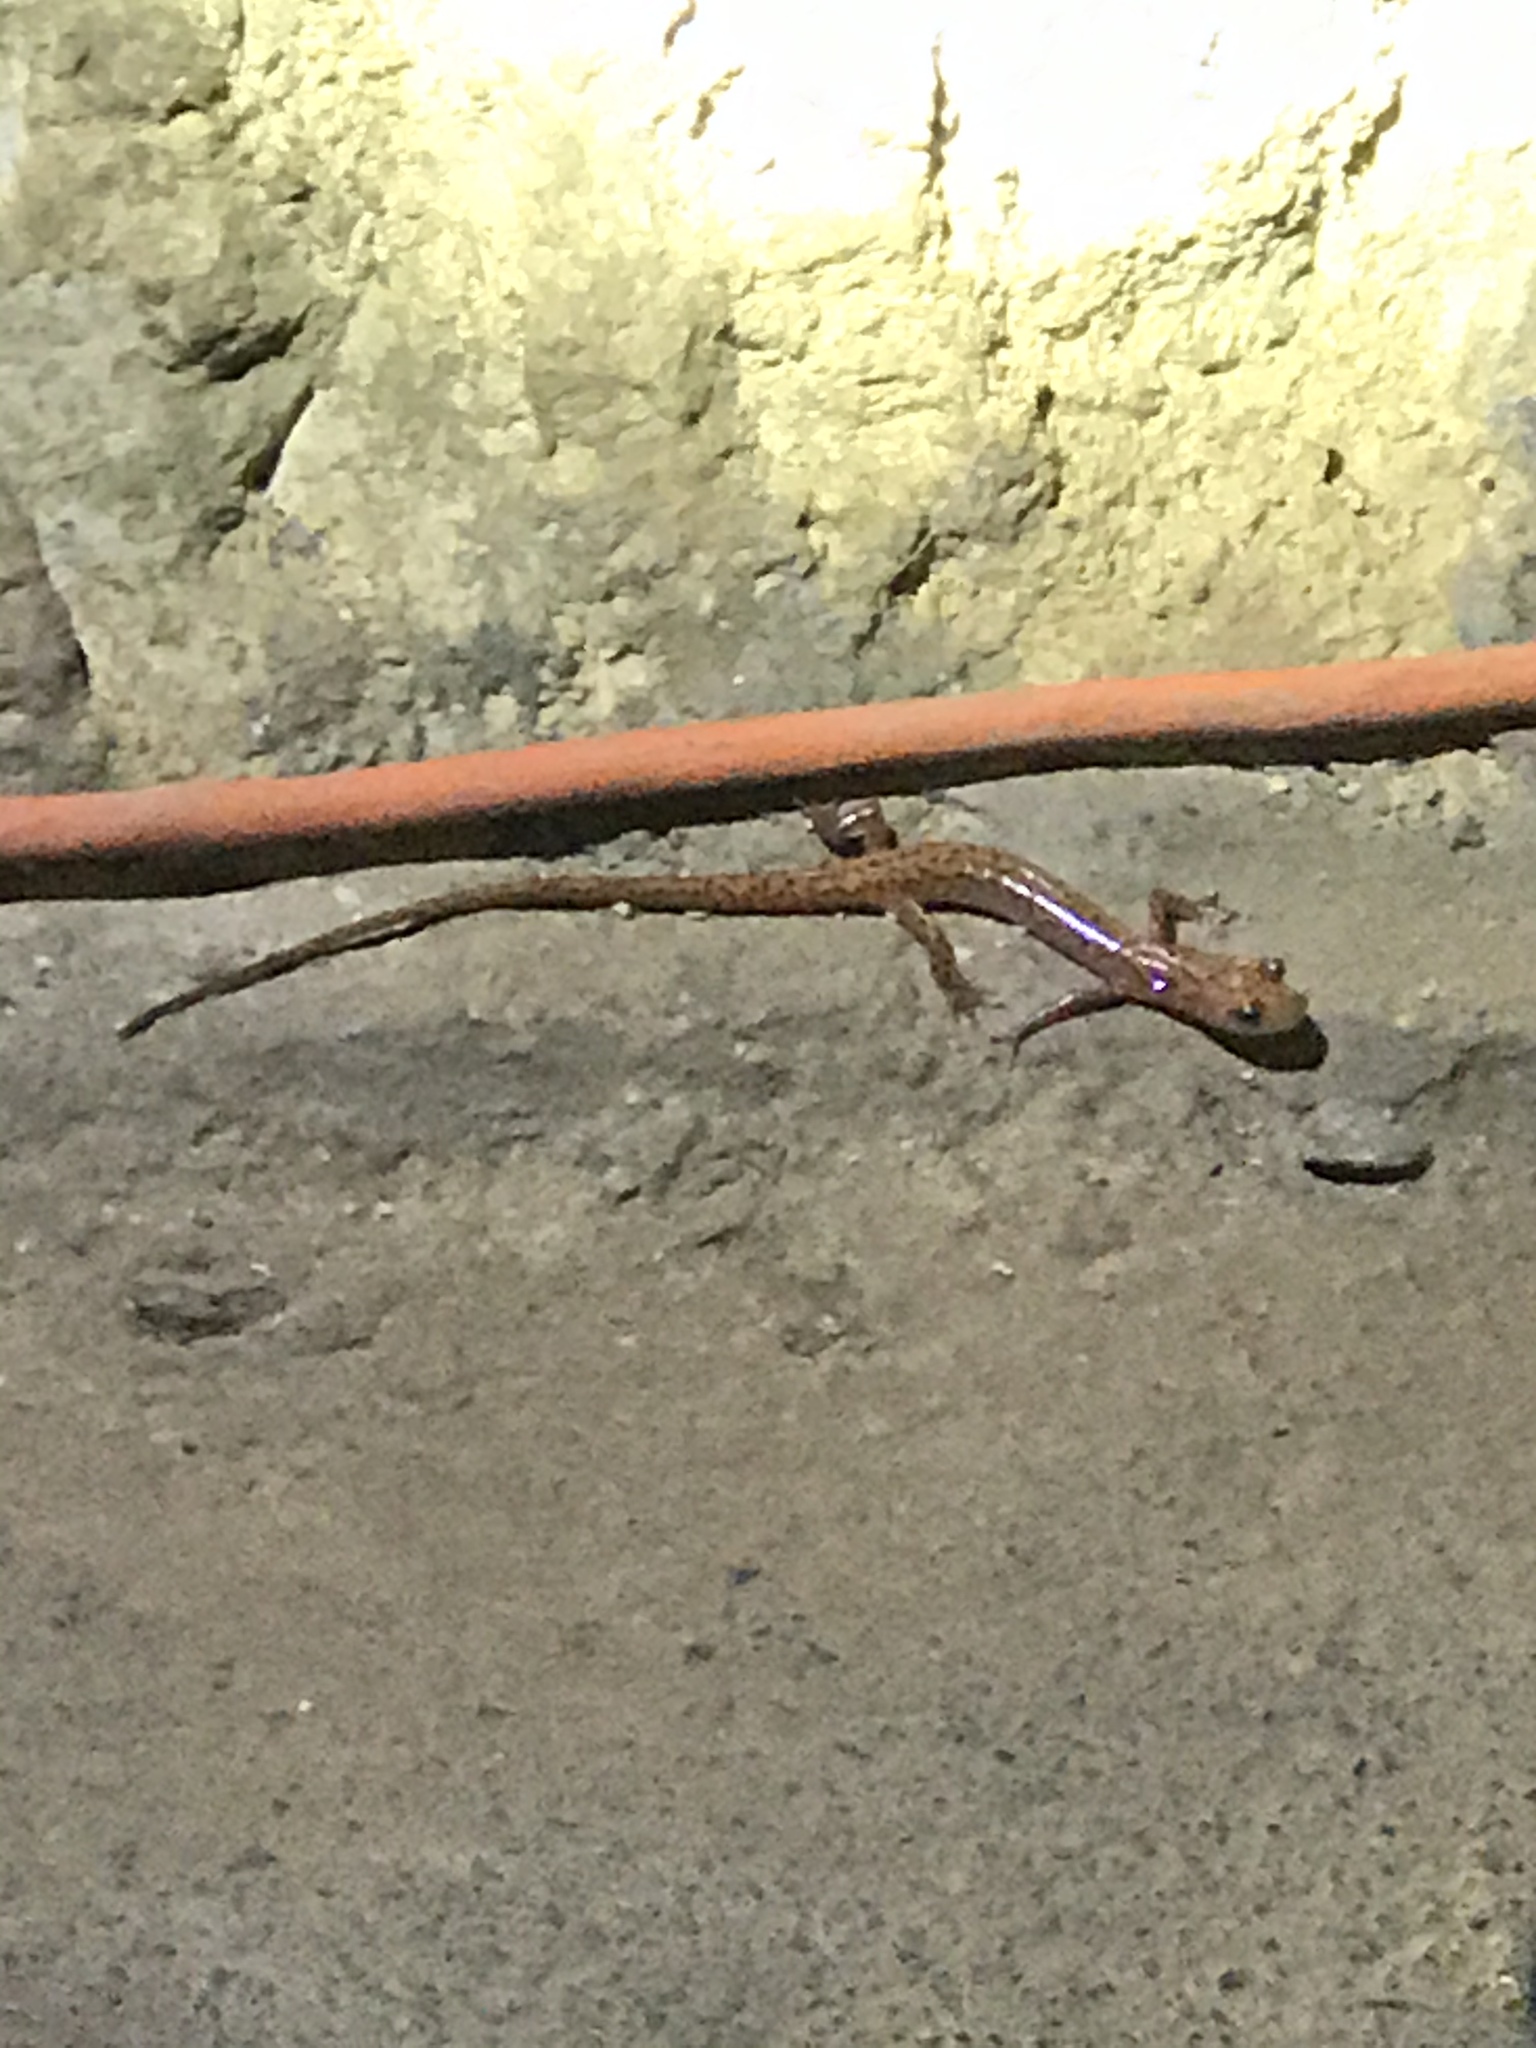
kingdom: Animalia
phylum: Chordata
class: Amphibia
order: Caudata
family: Plethodontidae
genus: Eurycea
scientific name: Eurycea lucifuga
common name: Cave salamander
